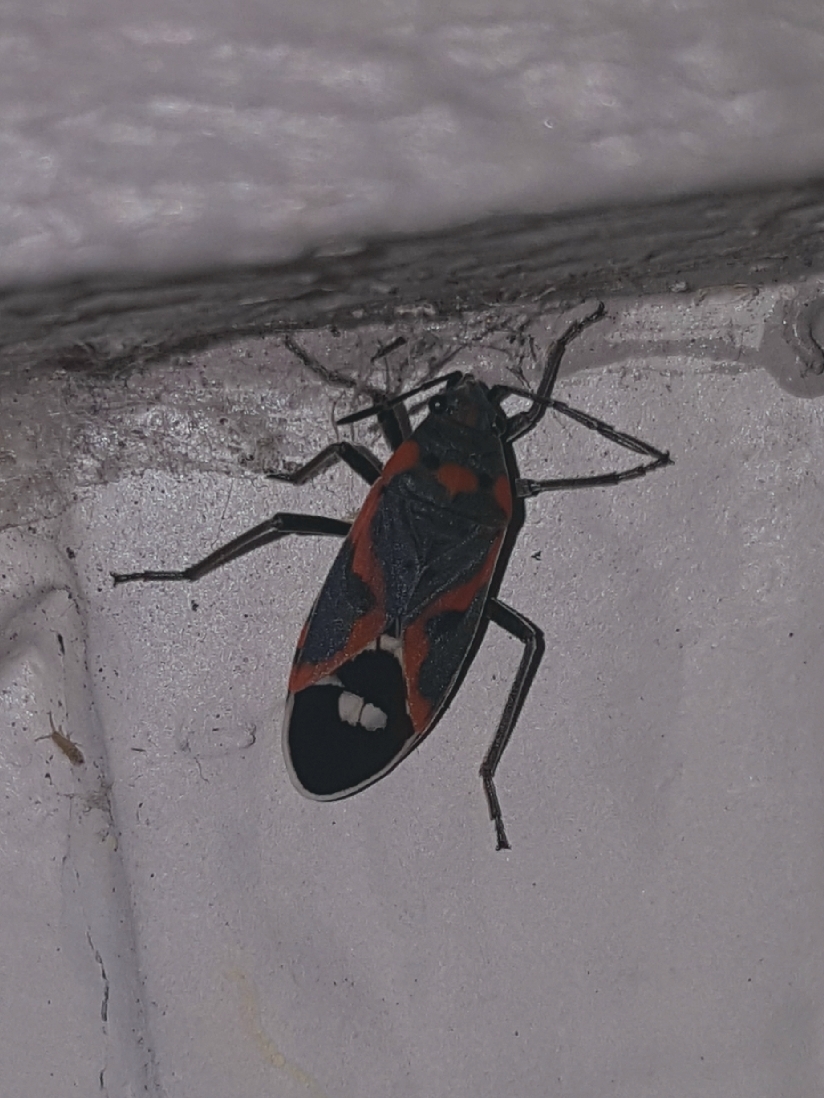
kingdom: Animalia
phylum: Arthropoda
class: Insecta
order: Hemiptera
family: Lygaeidae
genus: Lygaeus
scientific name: Lygaeus kalmii
